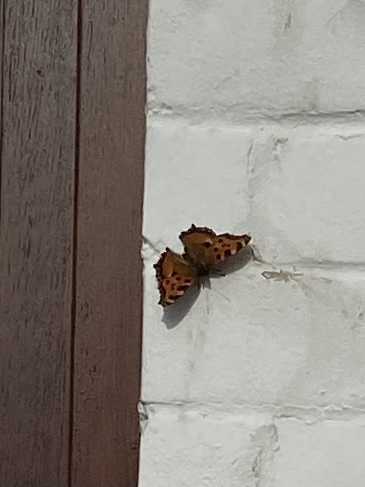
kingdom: Animalia
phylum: Arthropoda
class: Insecta
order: Lepidoptera
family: Nymphalidae
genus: Nymphalis
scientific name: Nymphalis polychloros
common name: Large tortoiseshell
